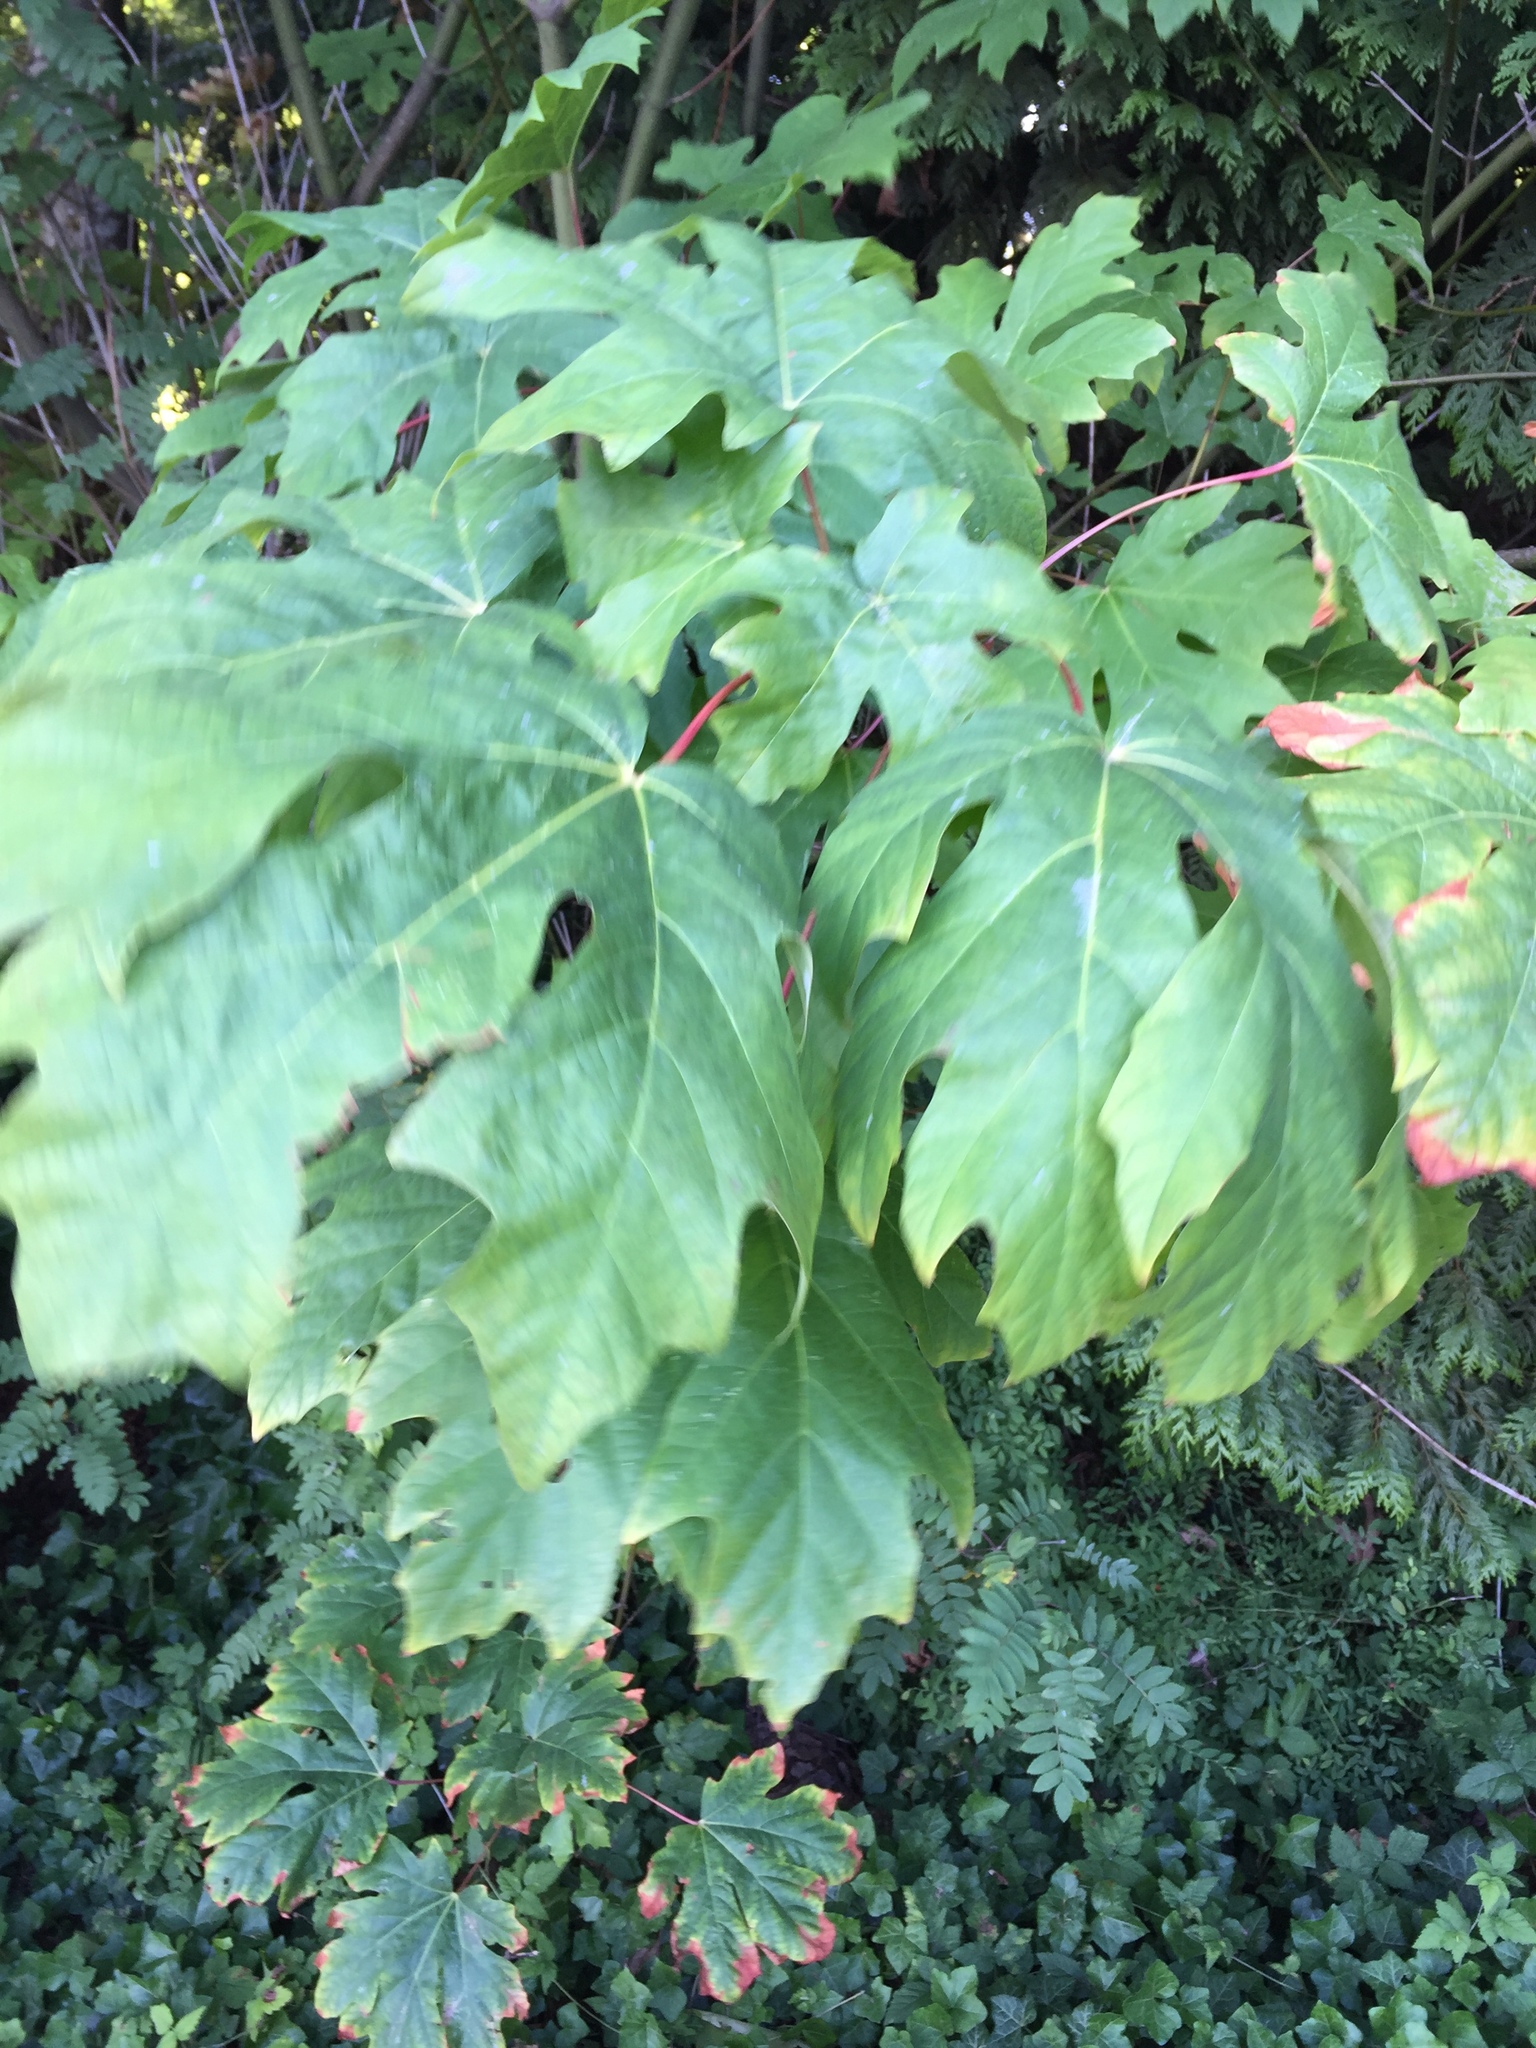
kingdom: Plantae
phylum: Tracheophyta
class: Magnoliopsida
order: Sapindales
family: Sapindaceae
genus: Acer
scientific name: Acer macrophyllum
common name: Oregon maple
